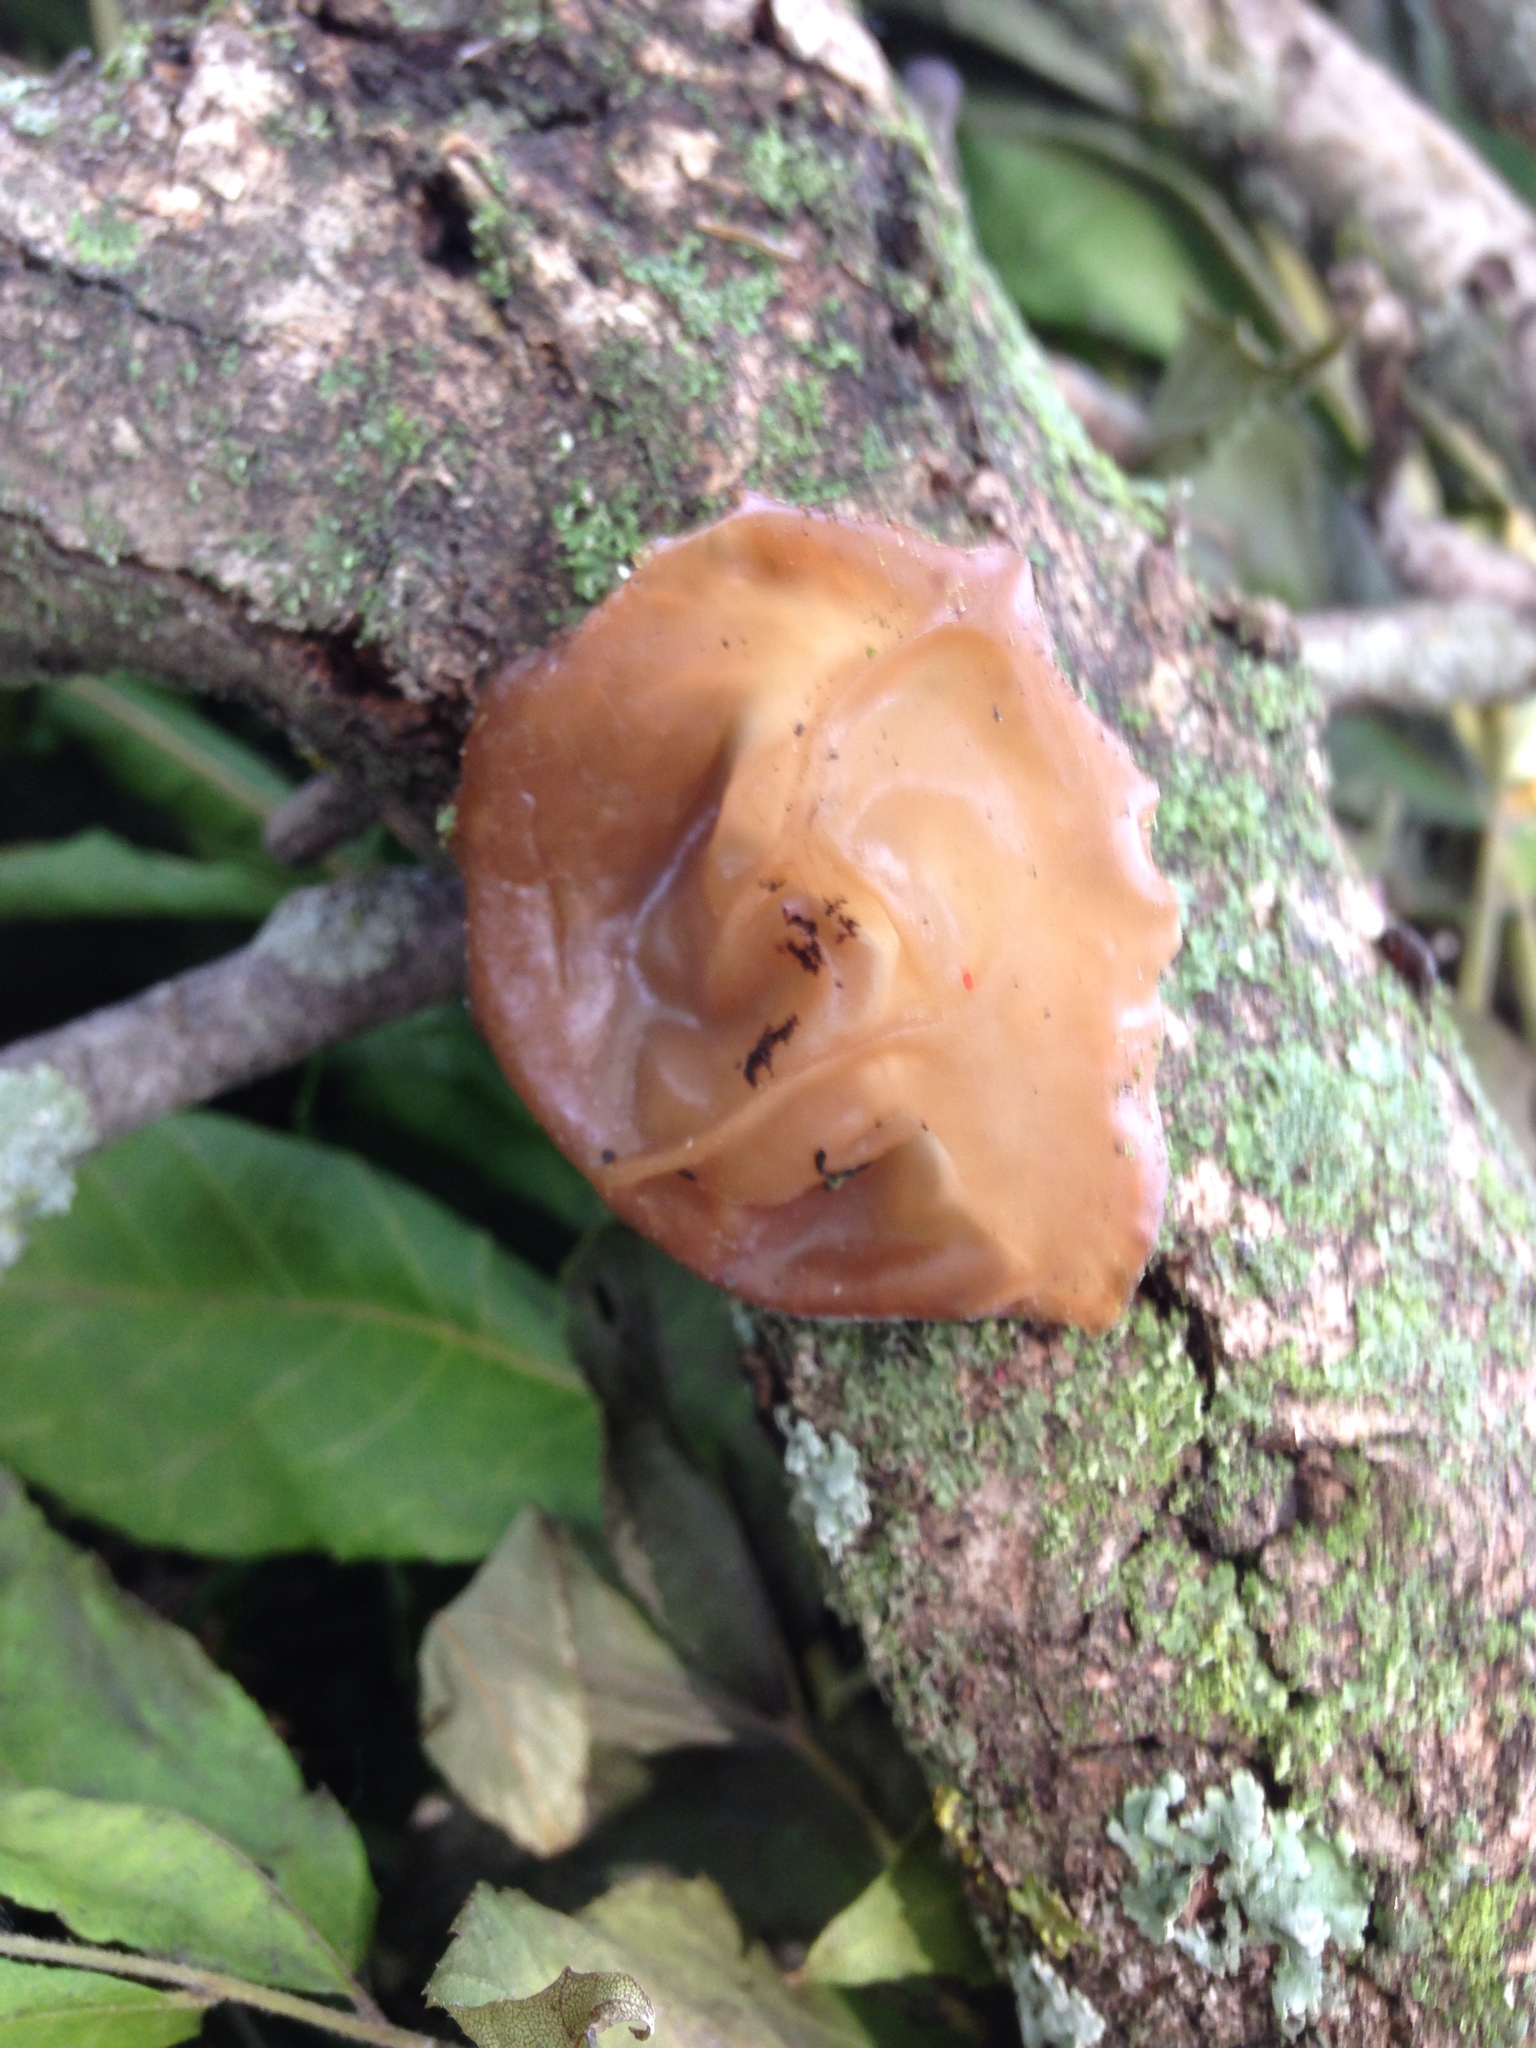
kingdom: Fungi
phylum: Basidiomycota
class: Agaricomycetes
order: Auriculariales
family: Auriculariaceae
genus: Auricularia
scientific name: Auricularia americana
